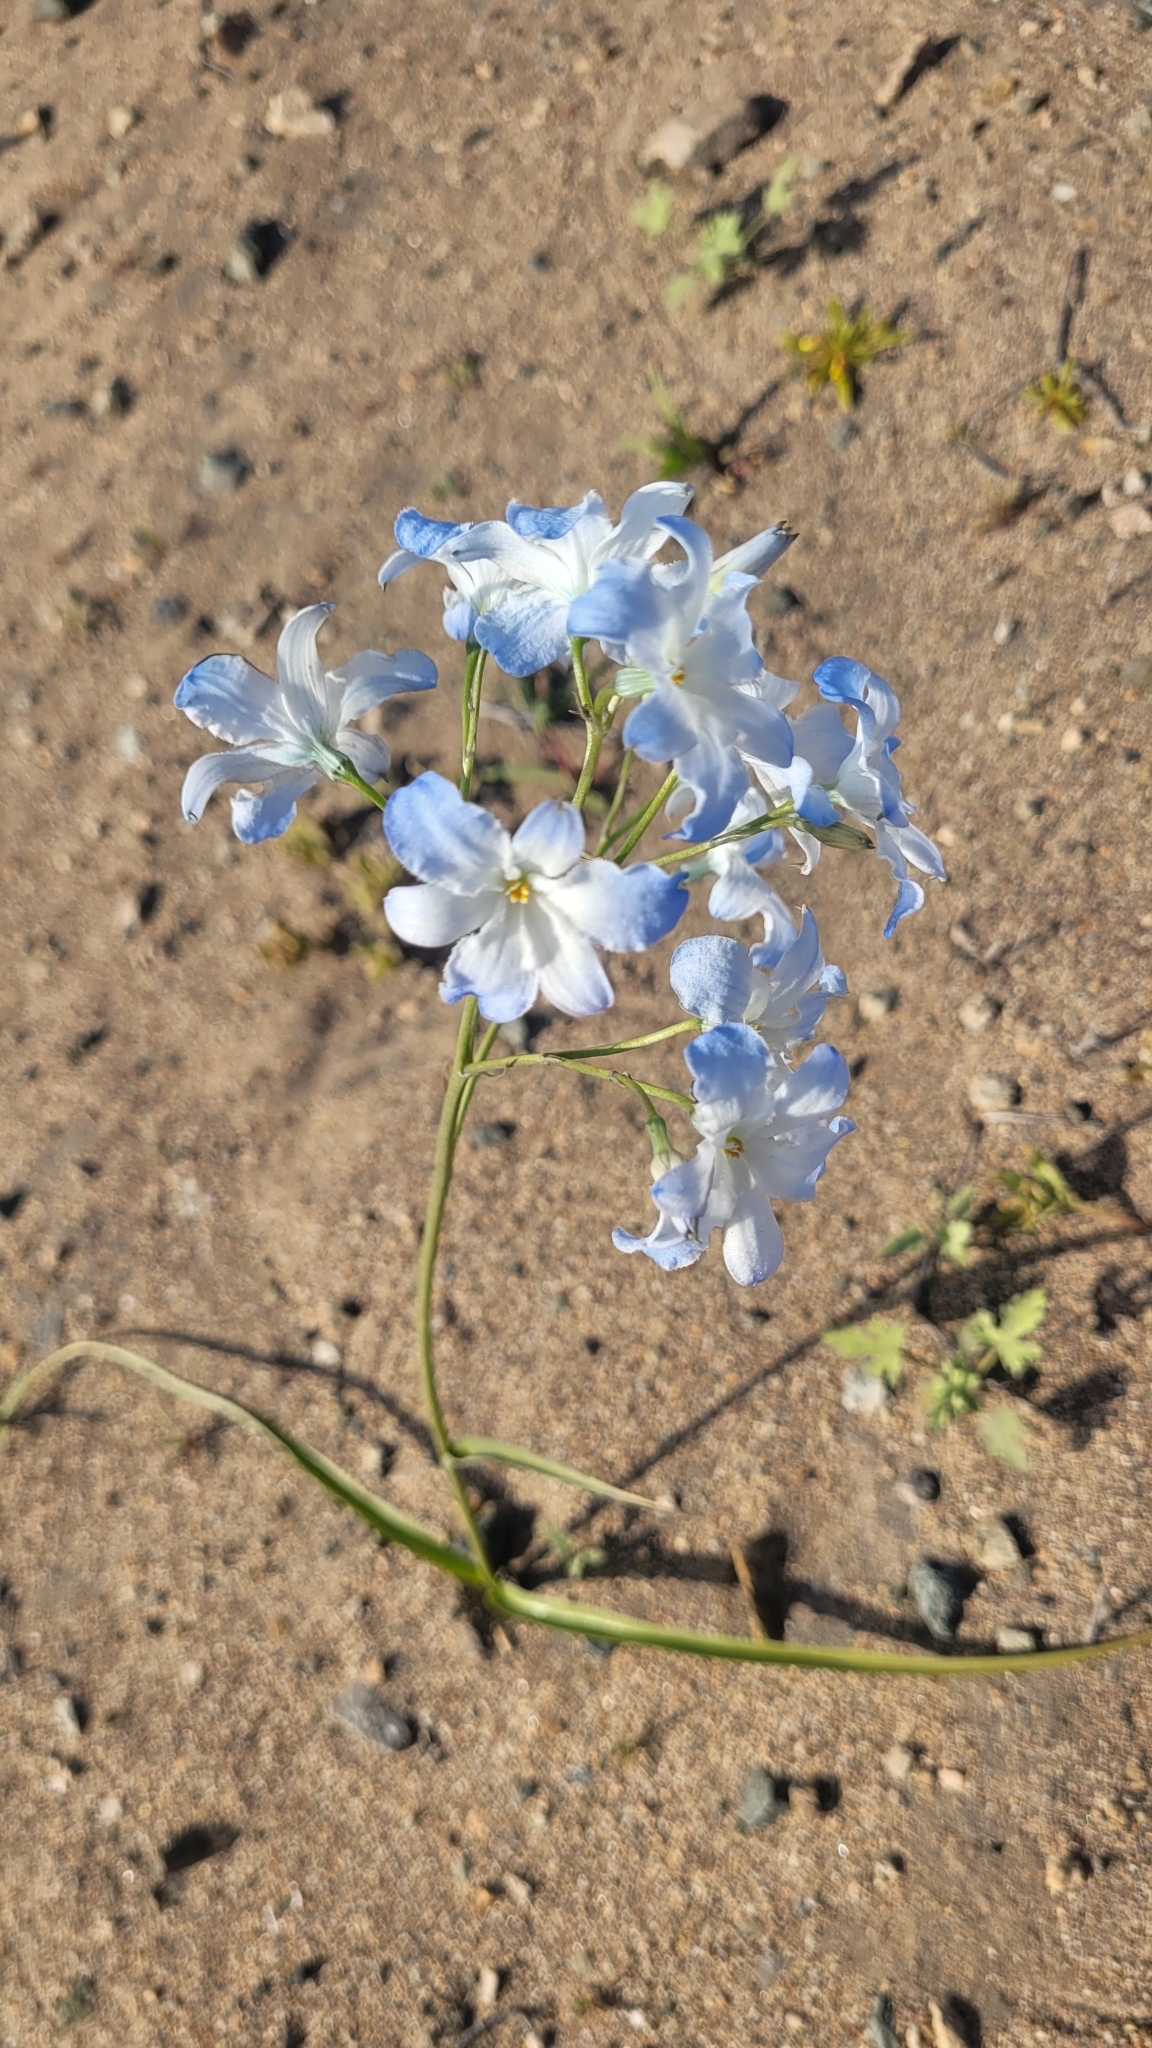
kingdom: Plantae
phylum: Tracheophyta
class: Liliopsida
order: Asparagales
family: Tecophilaeaceae
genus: Zephyra
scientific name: Zephyra elegans
